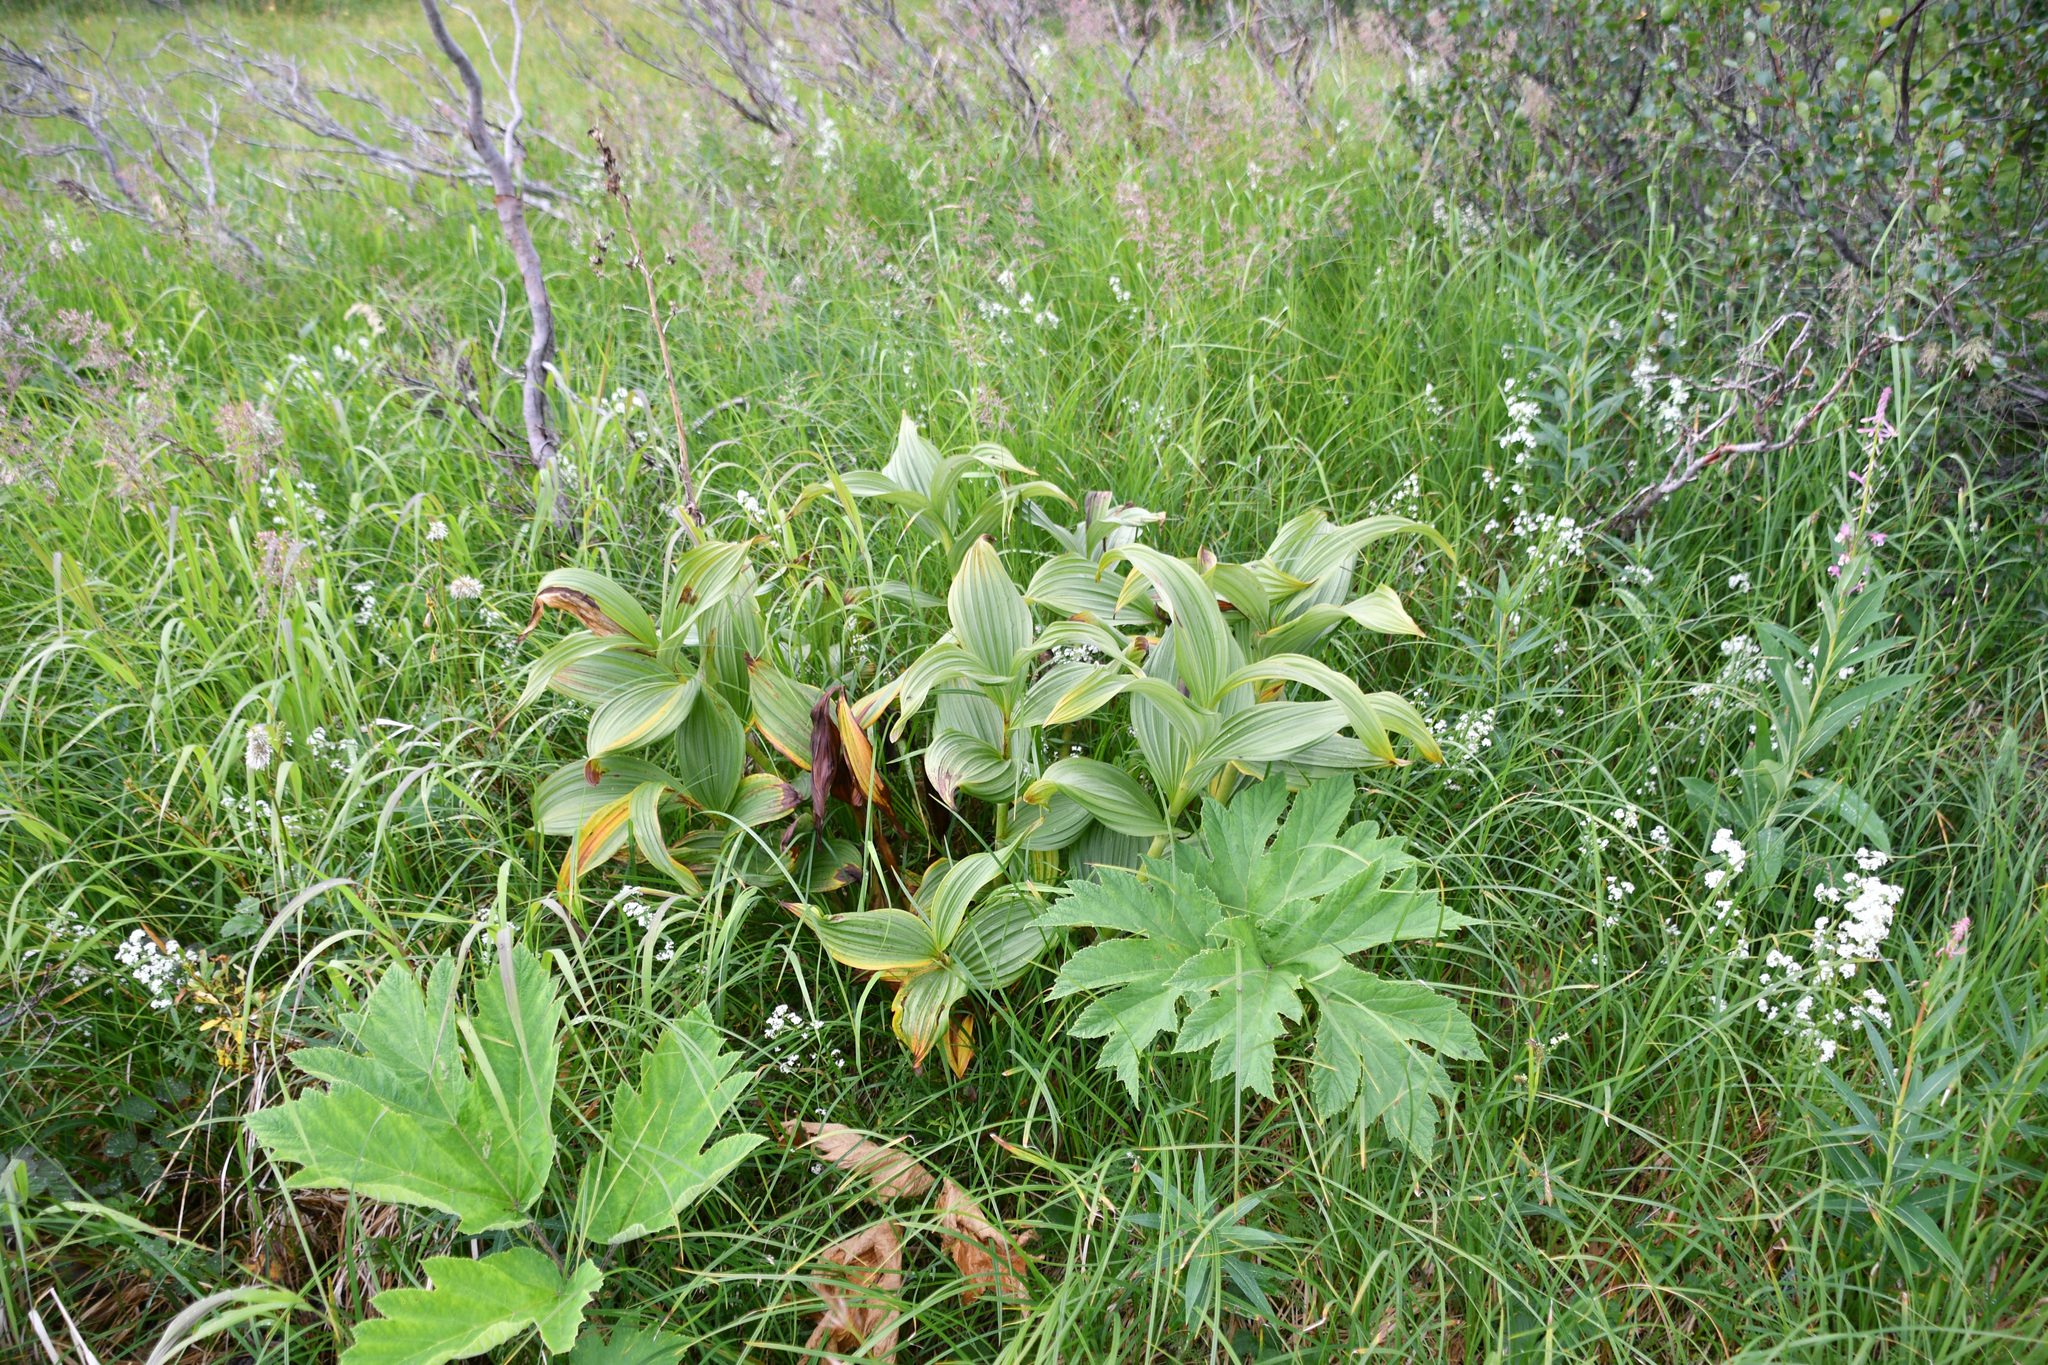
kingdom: Plantae
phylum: Tracheophyta
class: Liliopsida
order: Liliales
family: Melanthiaceae
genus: Veratrum
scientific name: Veratrum viride
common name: American false hellebore
